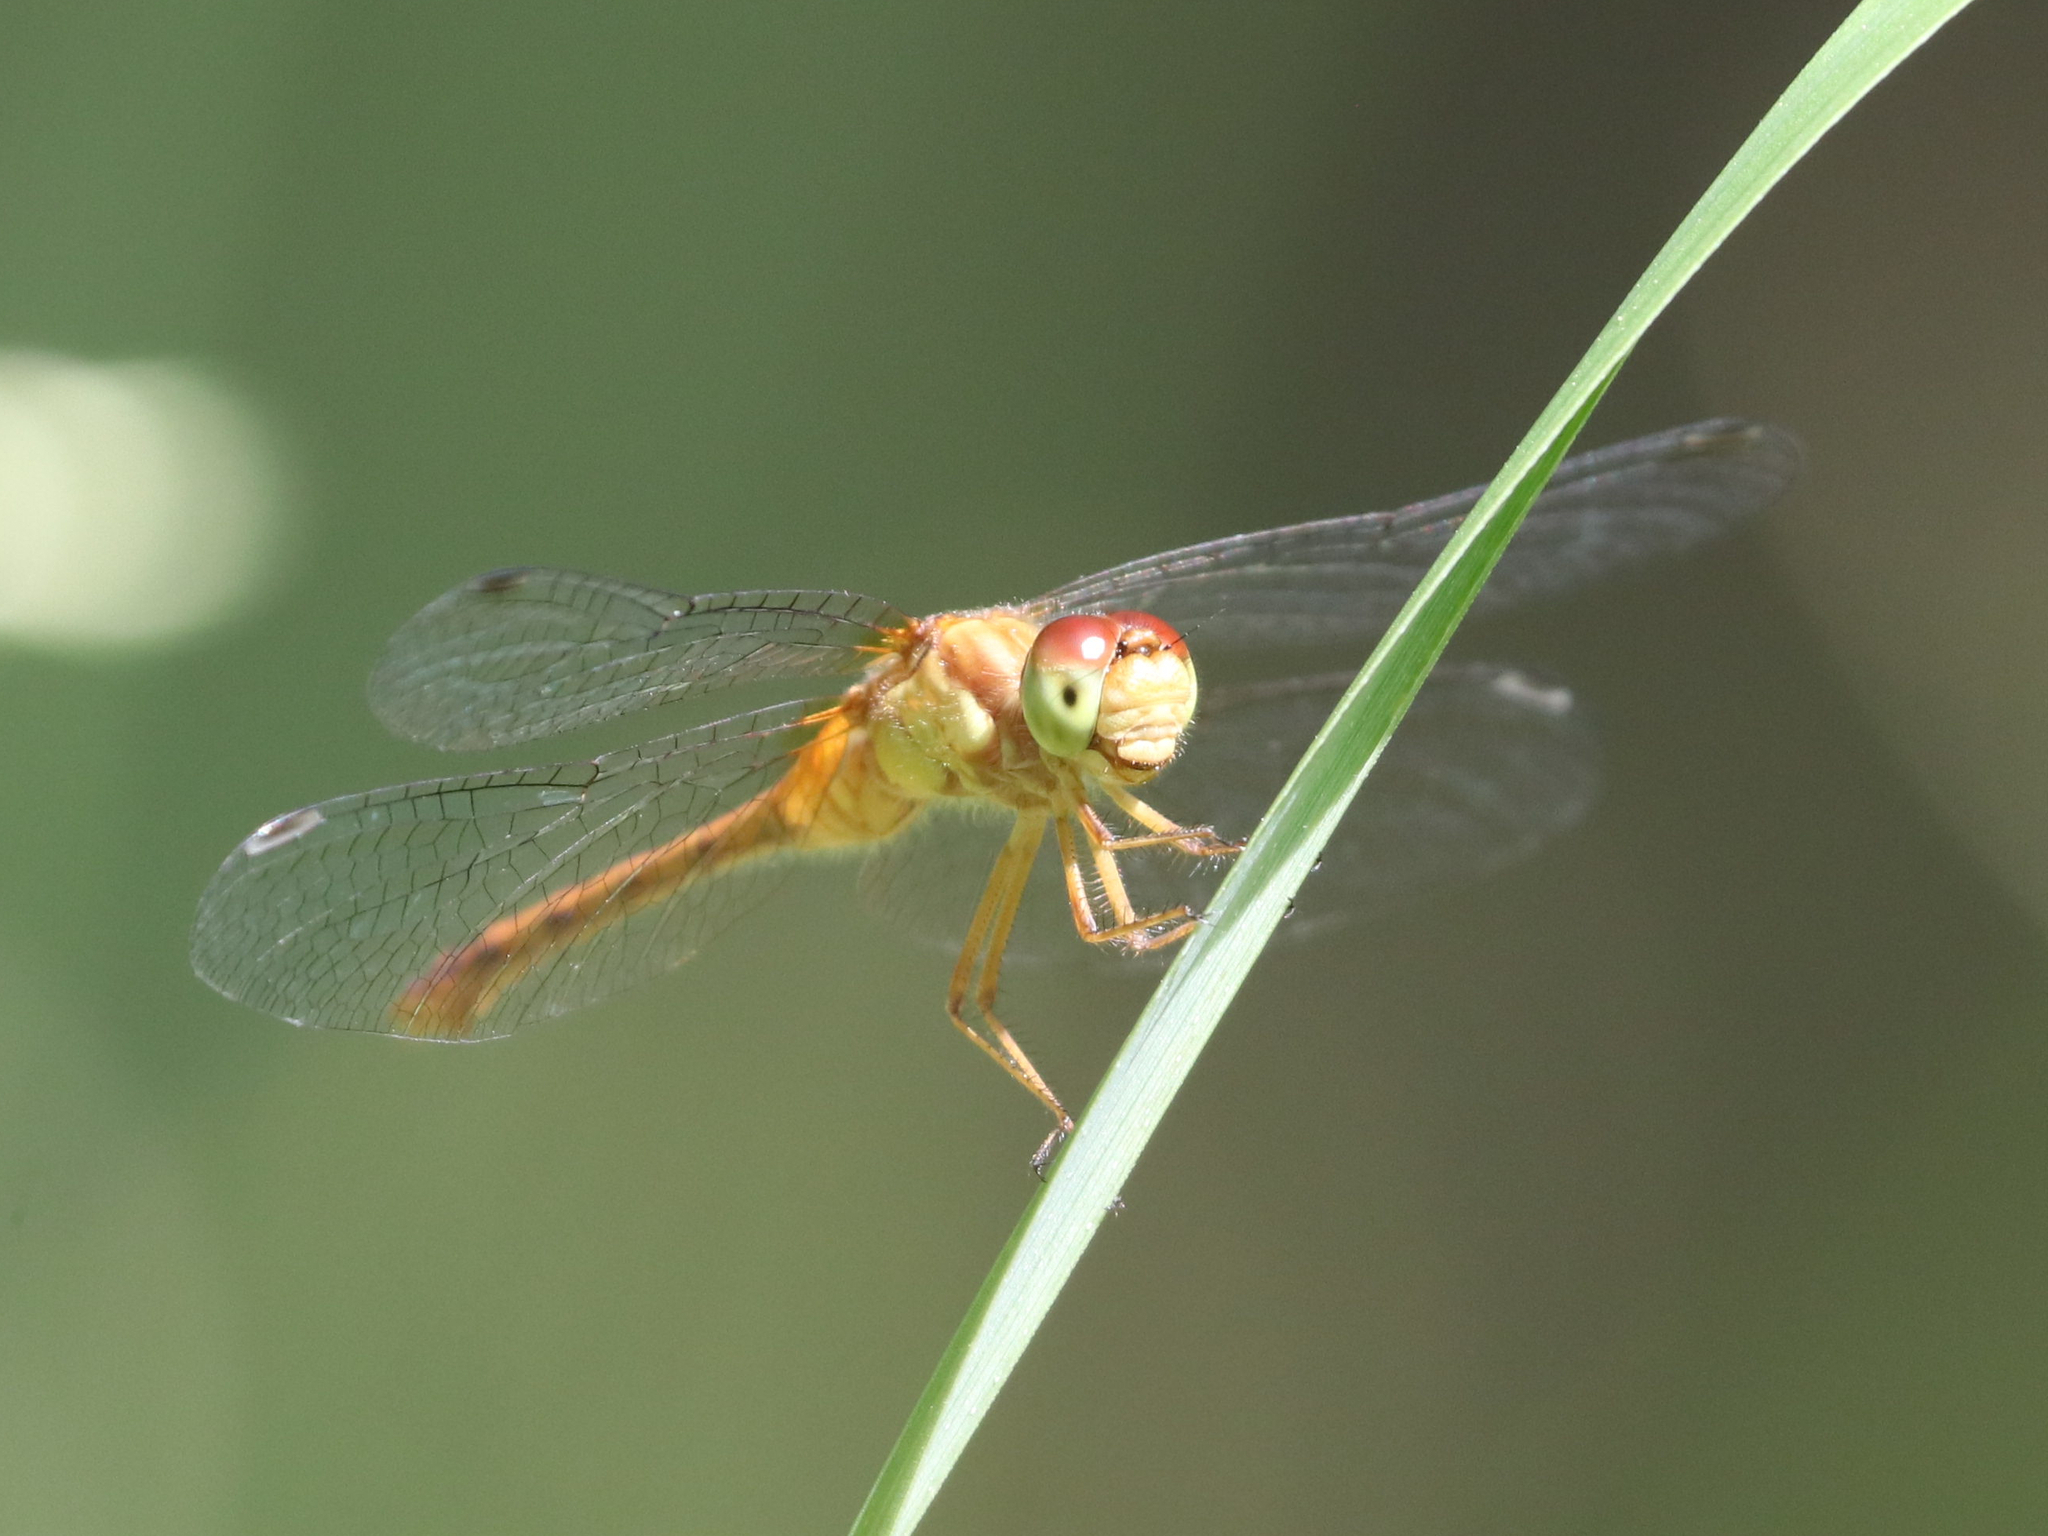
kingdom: Animalia
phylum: Arthropoda
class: Insecta
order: Odonata
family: Libellulidae
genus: Sympetrum
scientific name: Sympetrum vicinum
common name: Autumn meadowhawk
